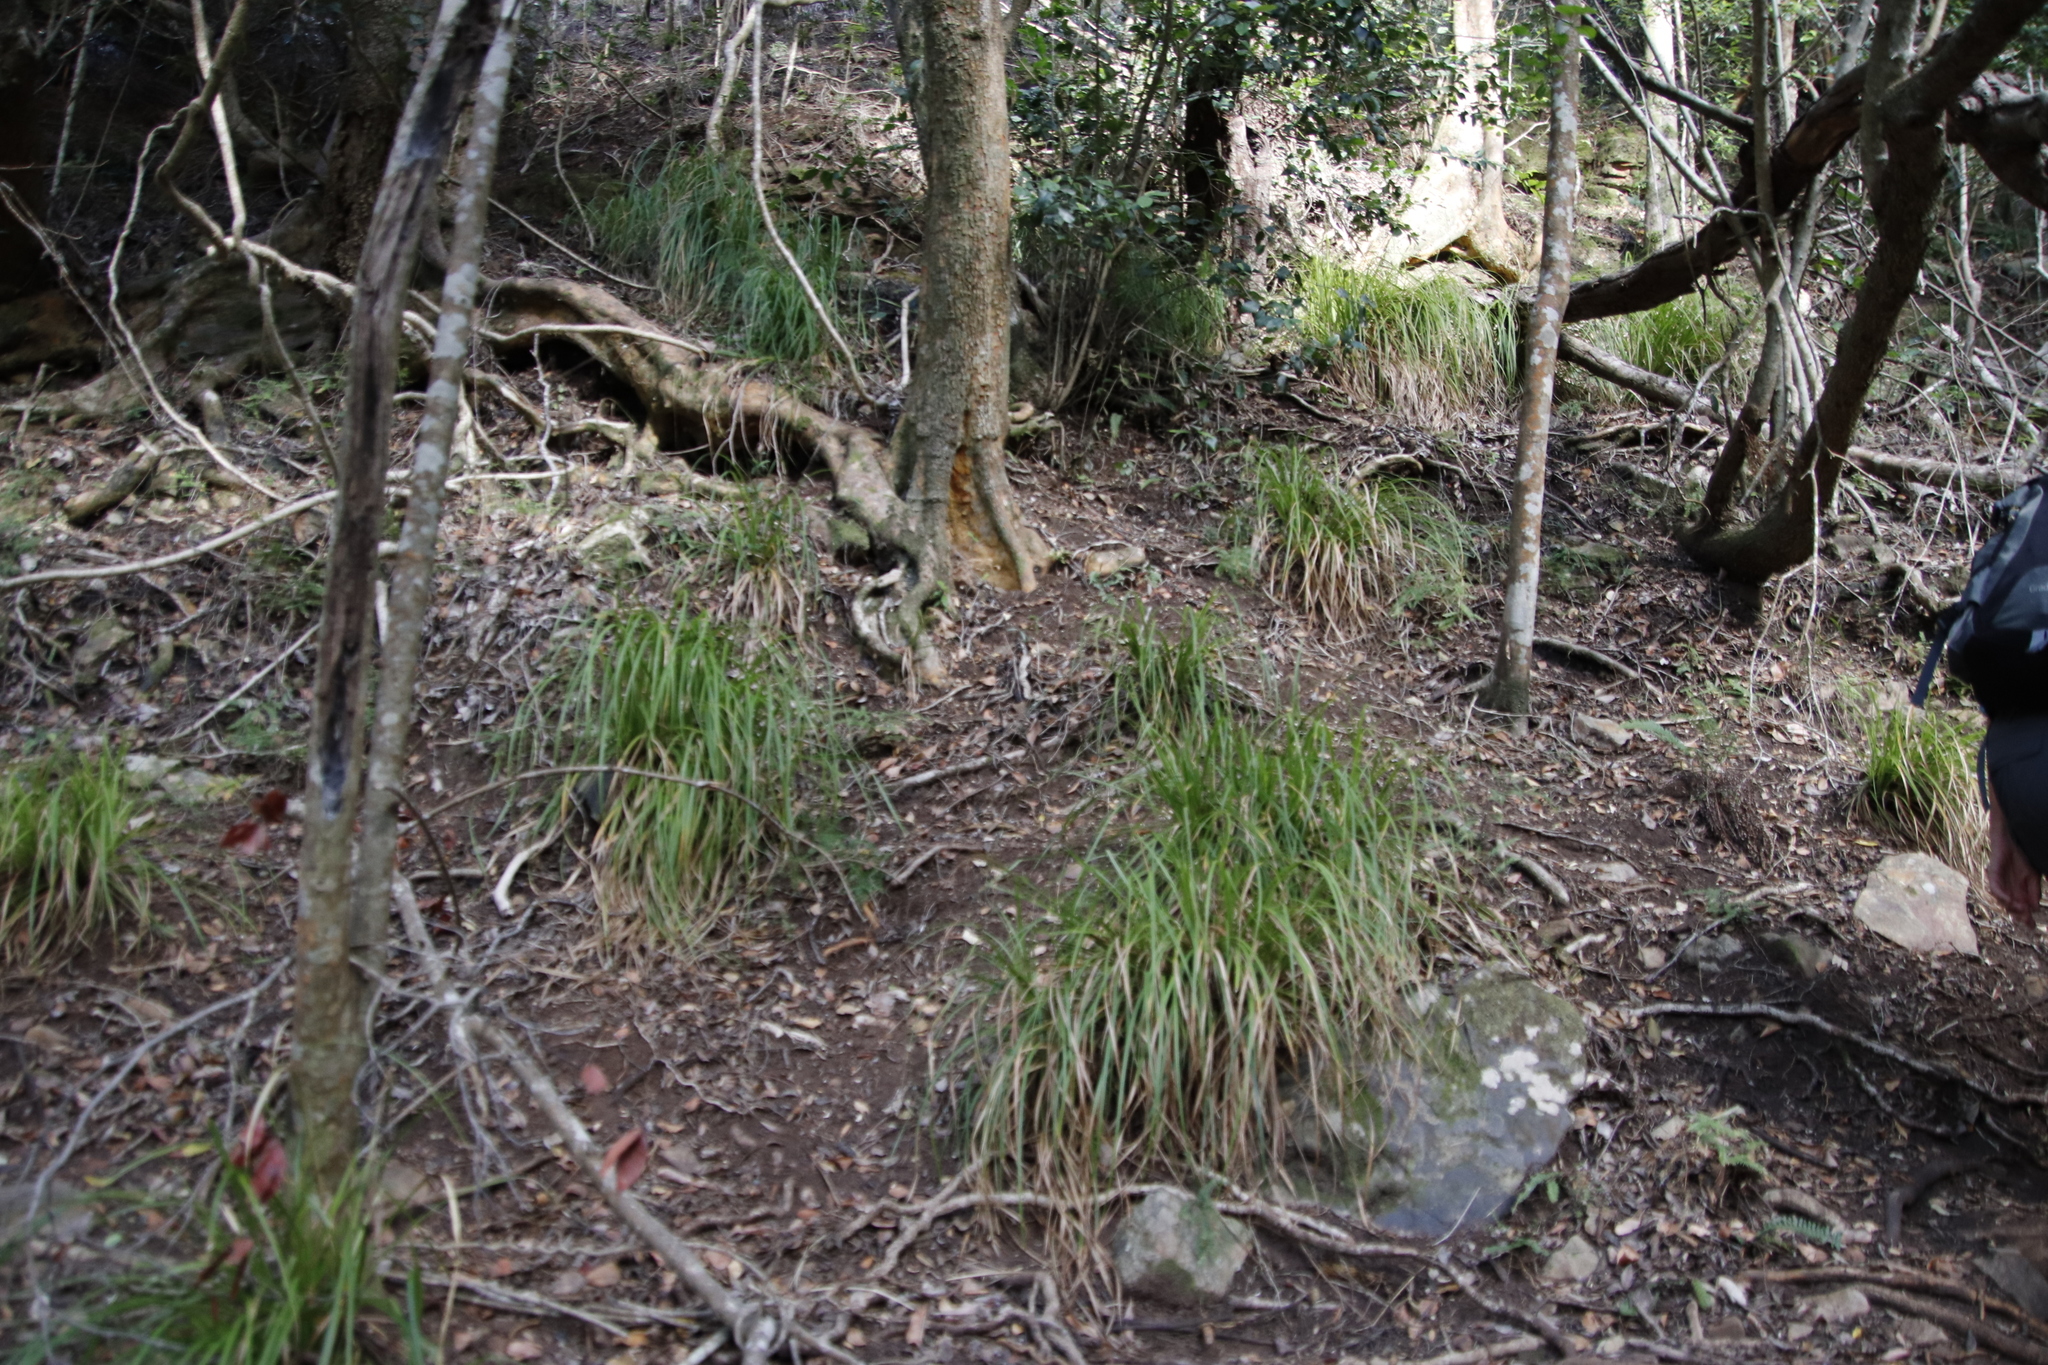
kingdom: Plantae
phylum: Tracheophyta
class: Liliopsida
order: Poales
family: Cyperaceae
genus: Carex
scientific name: Carex lancea
